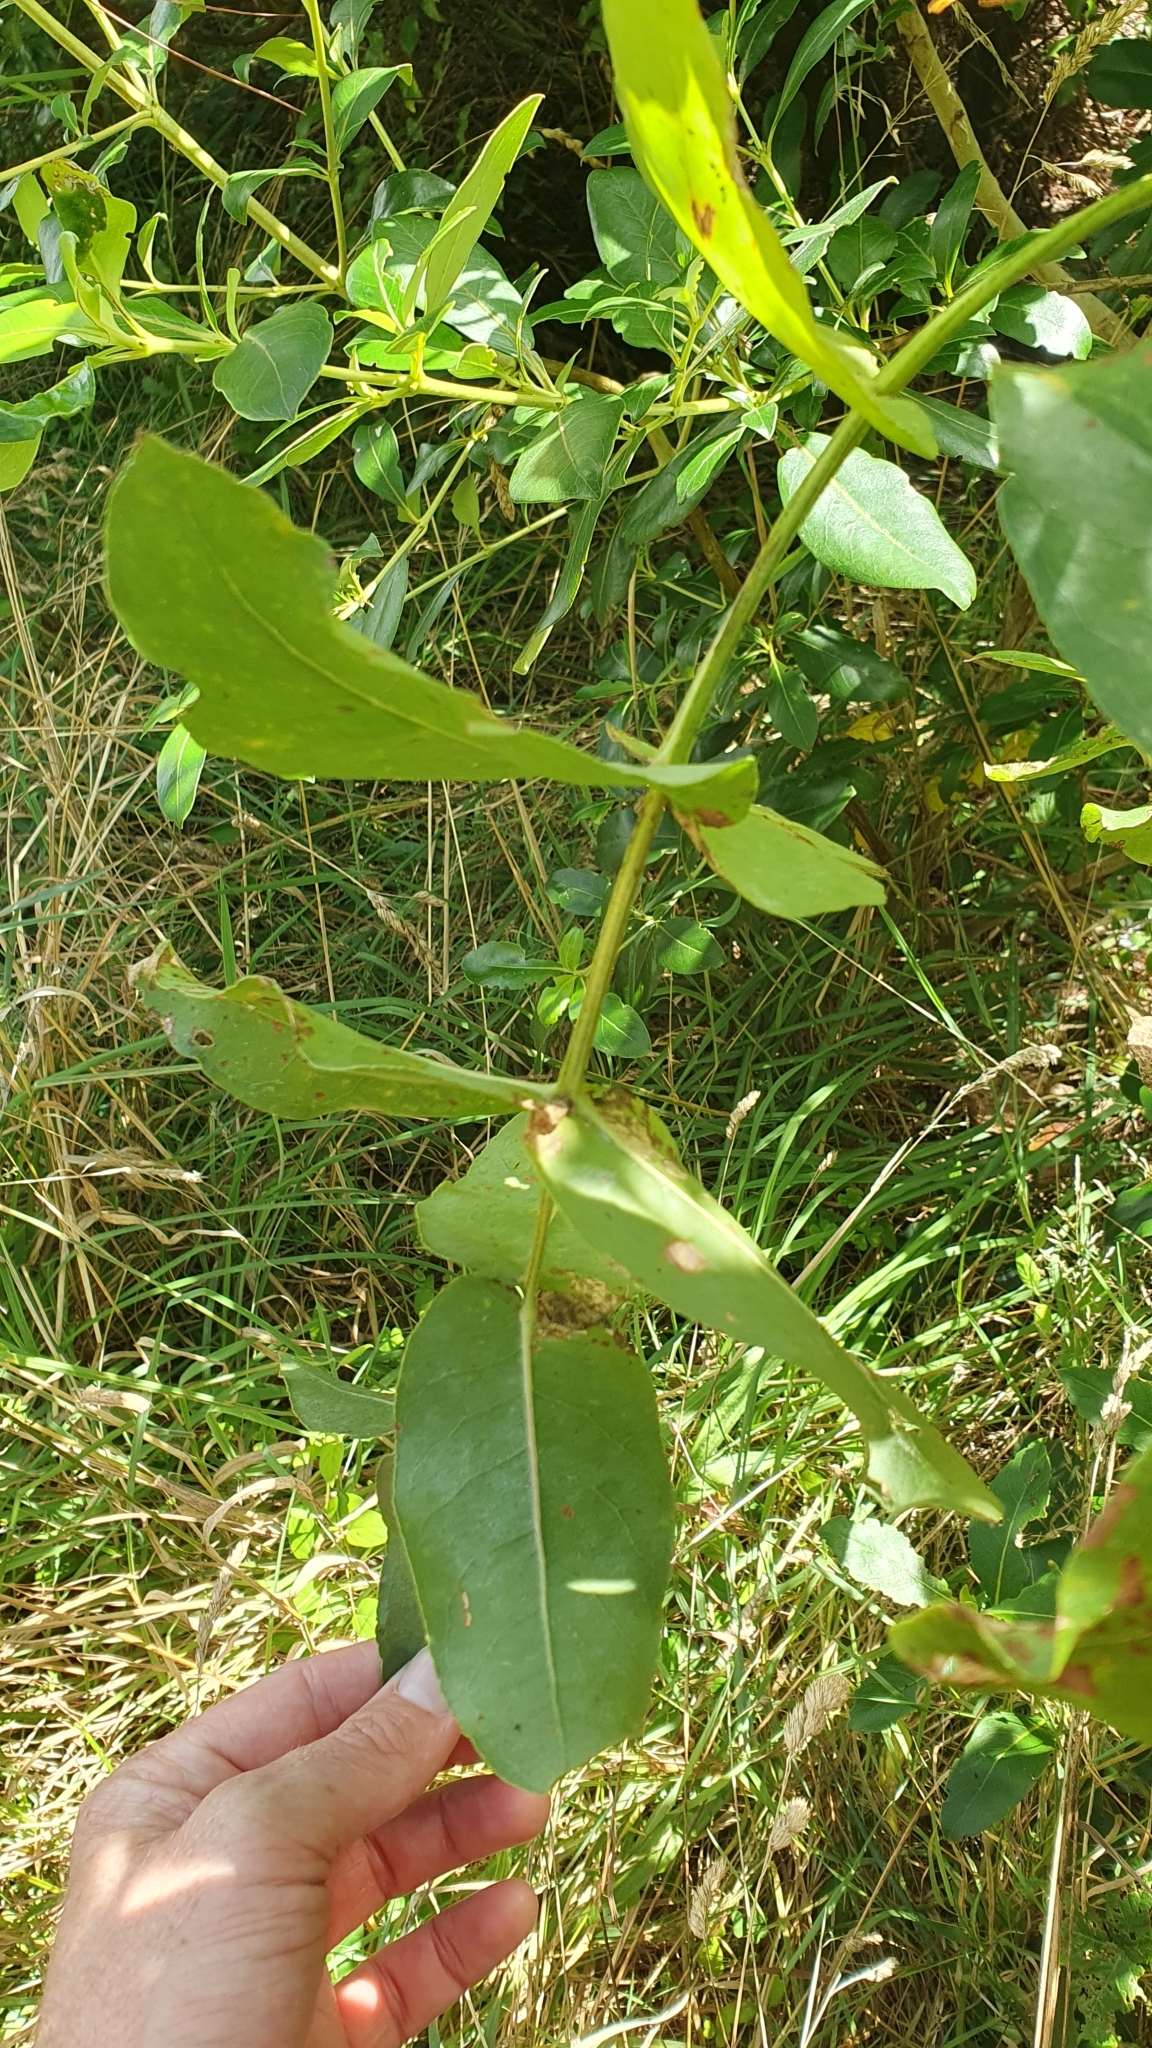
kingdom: Plantae
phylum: Tracheophyta
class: Magnoliopsida
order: Myrtales
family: Myrtaceae
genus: Eucalyptus
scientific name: Eucalyptus globulus
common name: Southern blue-gum
